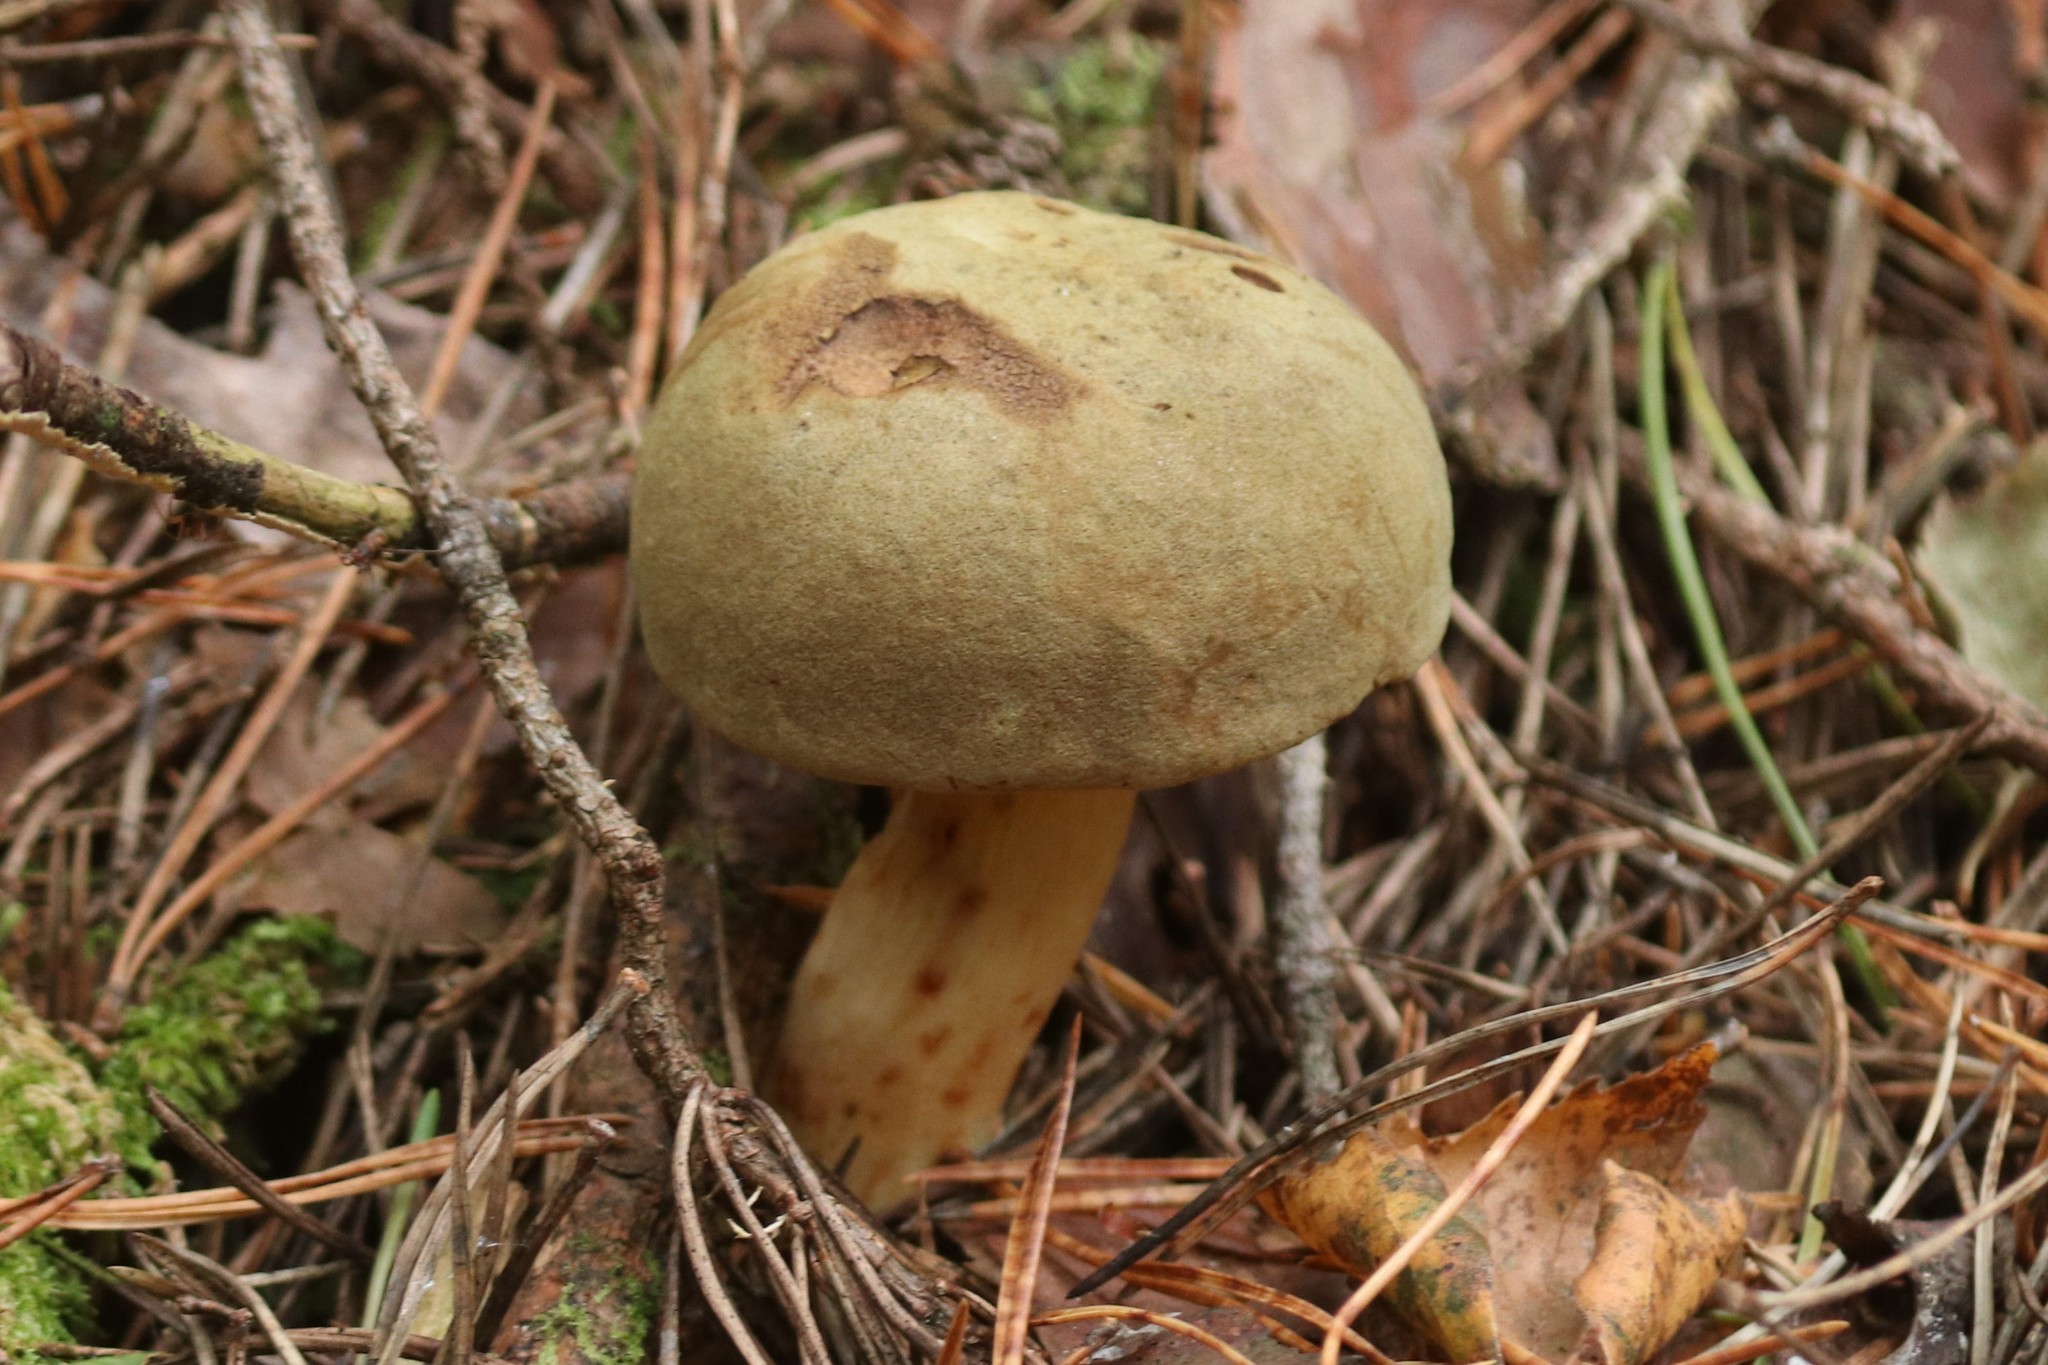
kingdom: Fungi
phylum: Basidiomycota
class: Agaricomycetes
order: Boletales
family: Boletaceae
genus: Xerocomus
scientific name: Xerocomus subtomentosus
